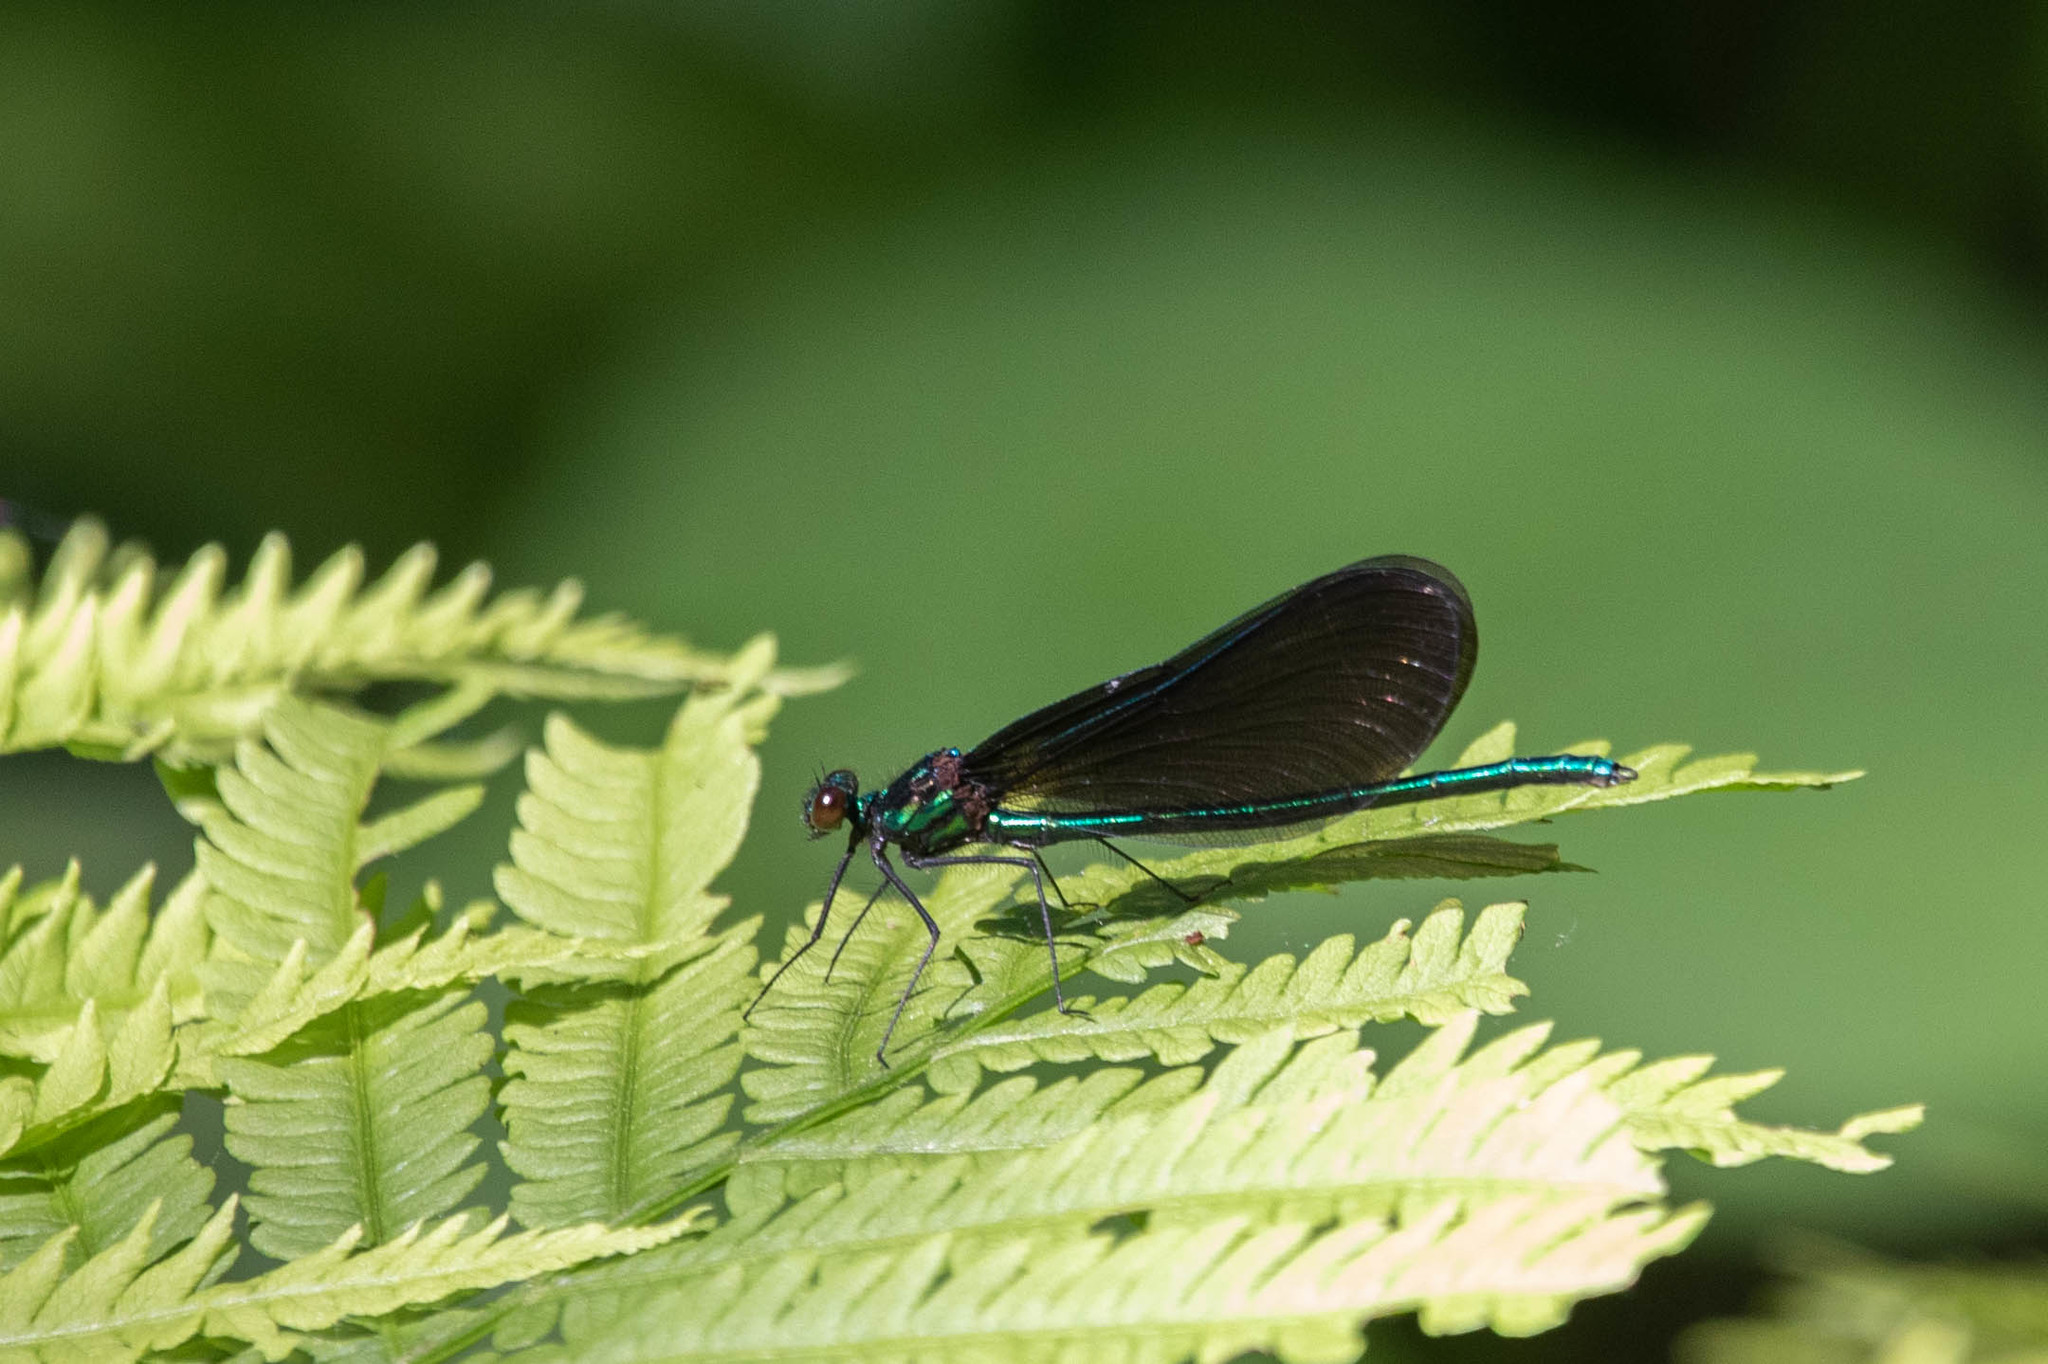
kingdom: Animalia
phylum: Arthropoda
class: Insecta
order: Odonata
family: Calopterygidae
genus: Calopteryx
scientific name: Calopteryx maculata
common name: Ebony jewelwing
